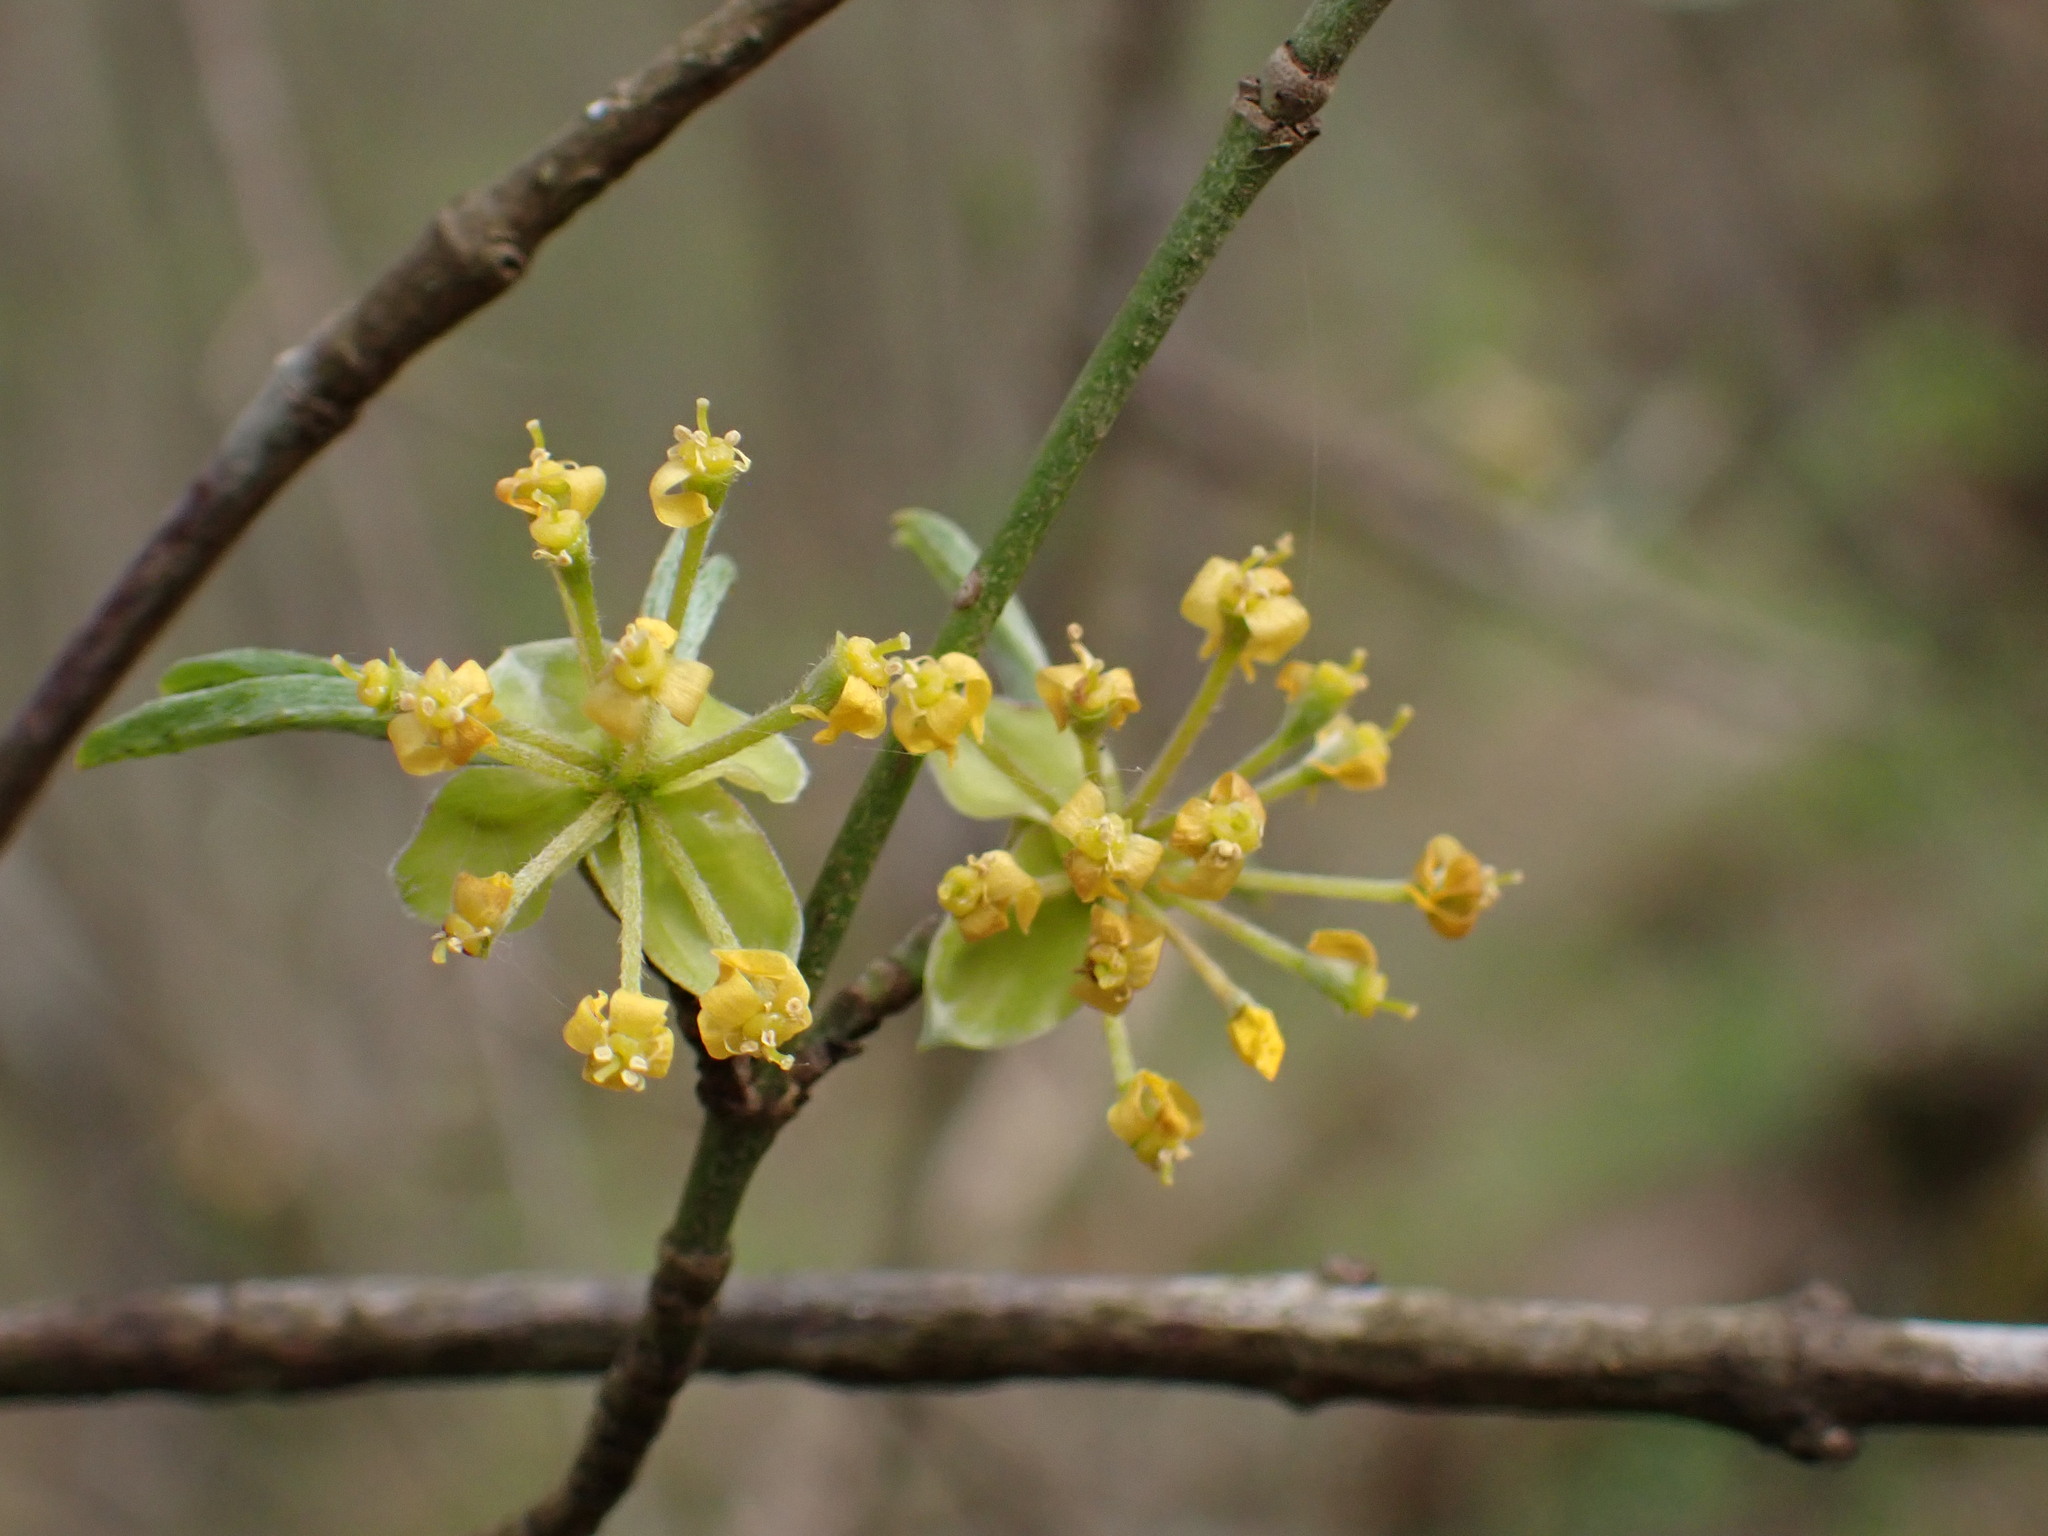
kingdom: Plantae
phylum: Tracheophyta
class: Magnoliopsida
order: Cornales
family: Cornaceae
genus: Cornus
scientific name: Cornus mas
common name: Cornelian-cherry
